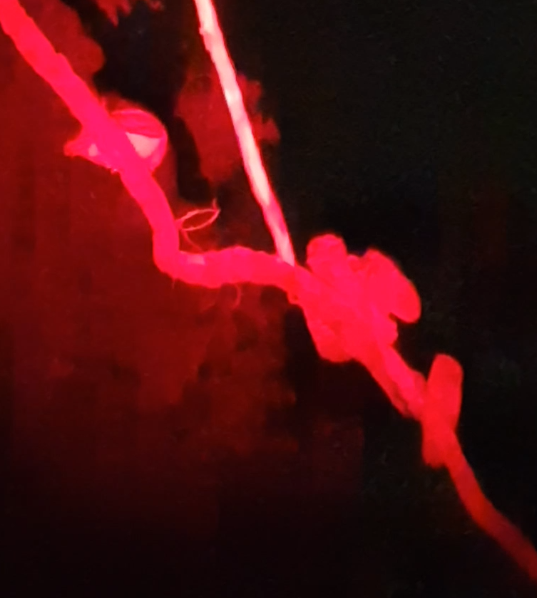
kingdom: Animalia
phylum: Chordata
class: Aves
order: Caprimulgiformes
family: Podargidae
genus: Podargus
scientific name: Podargus strigoides
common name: Tawny frogmouth
